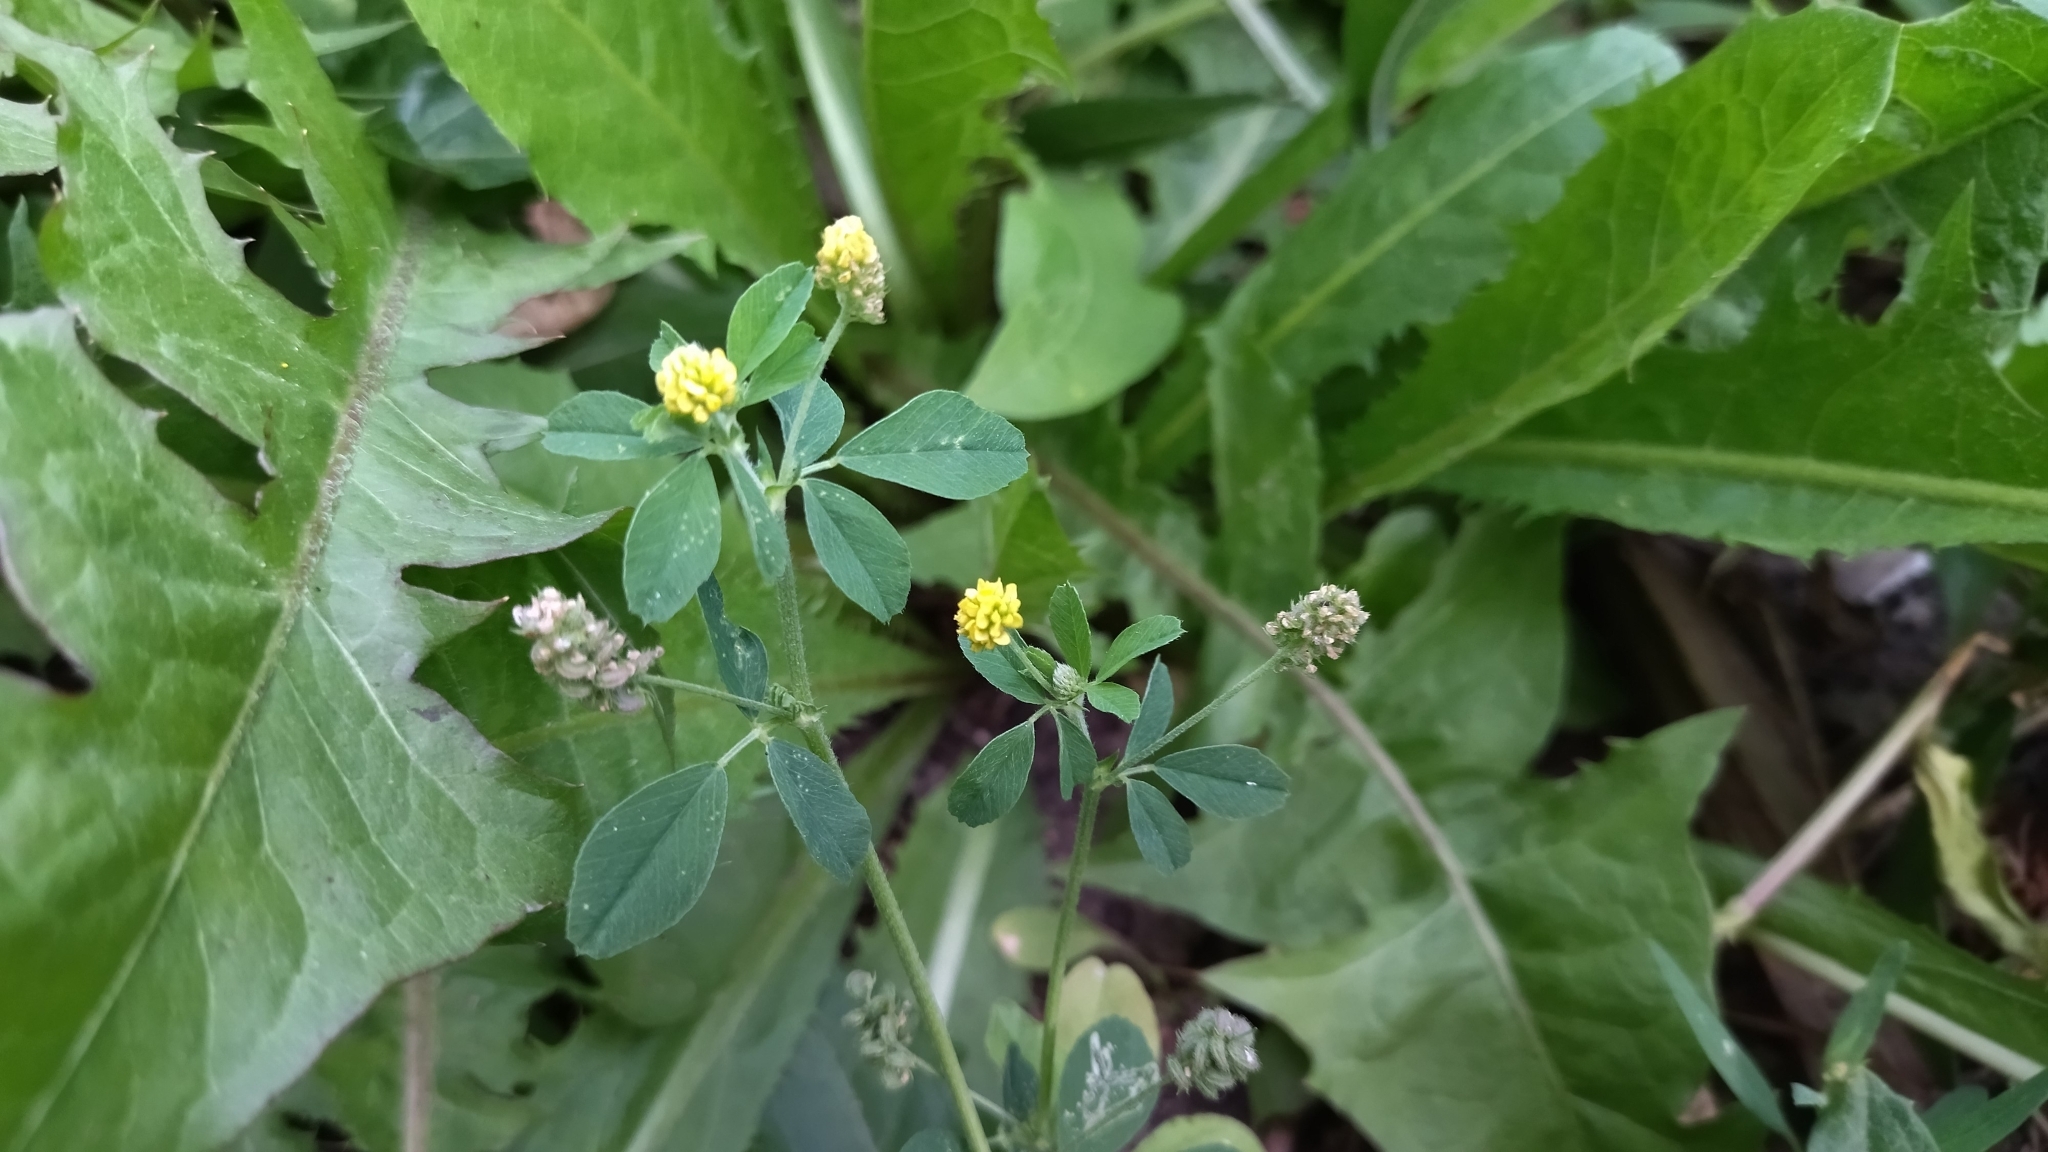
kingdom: Plantae
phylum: Tracheophyta
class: Magnoliopsida
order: Fabales
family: Fabaceae
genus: Medicago
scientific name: Medicago lupulina
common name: Black medick
